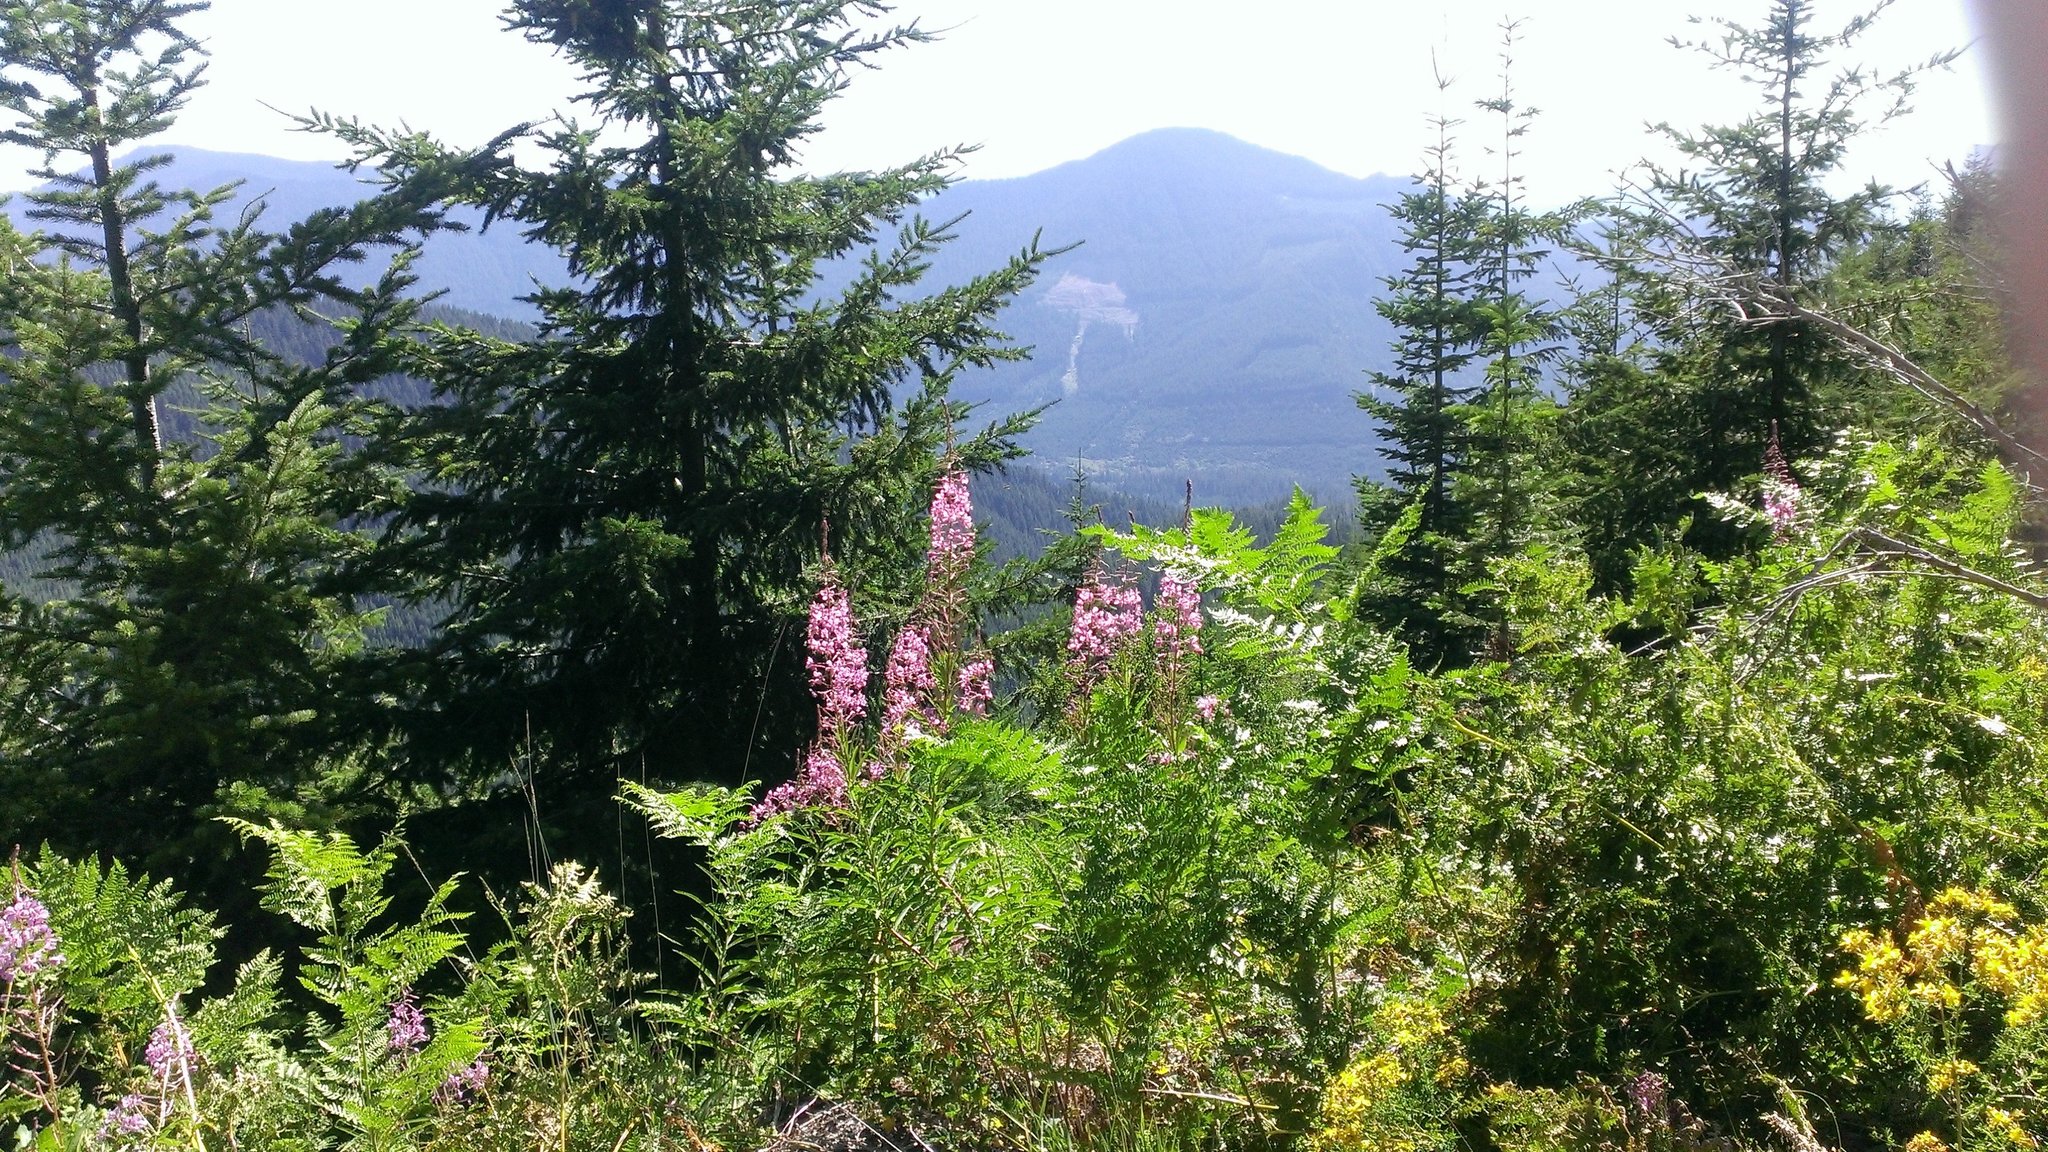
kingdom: Plantae
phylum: Tracheophyta
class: Magnoliopsida
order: Myrtales
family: Onagraceae
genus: Chamaenerion
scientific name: Chamaenerion angustifolium
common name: Fireweed
